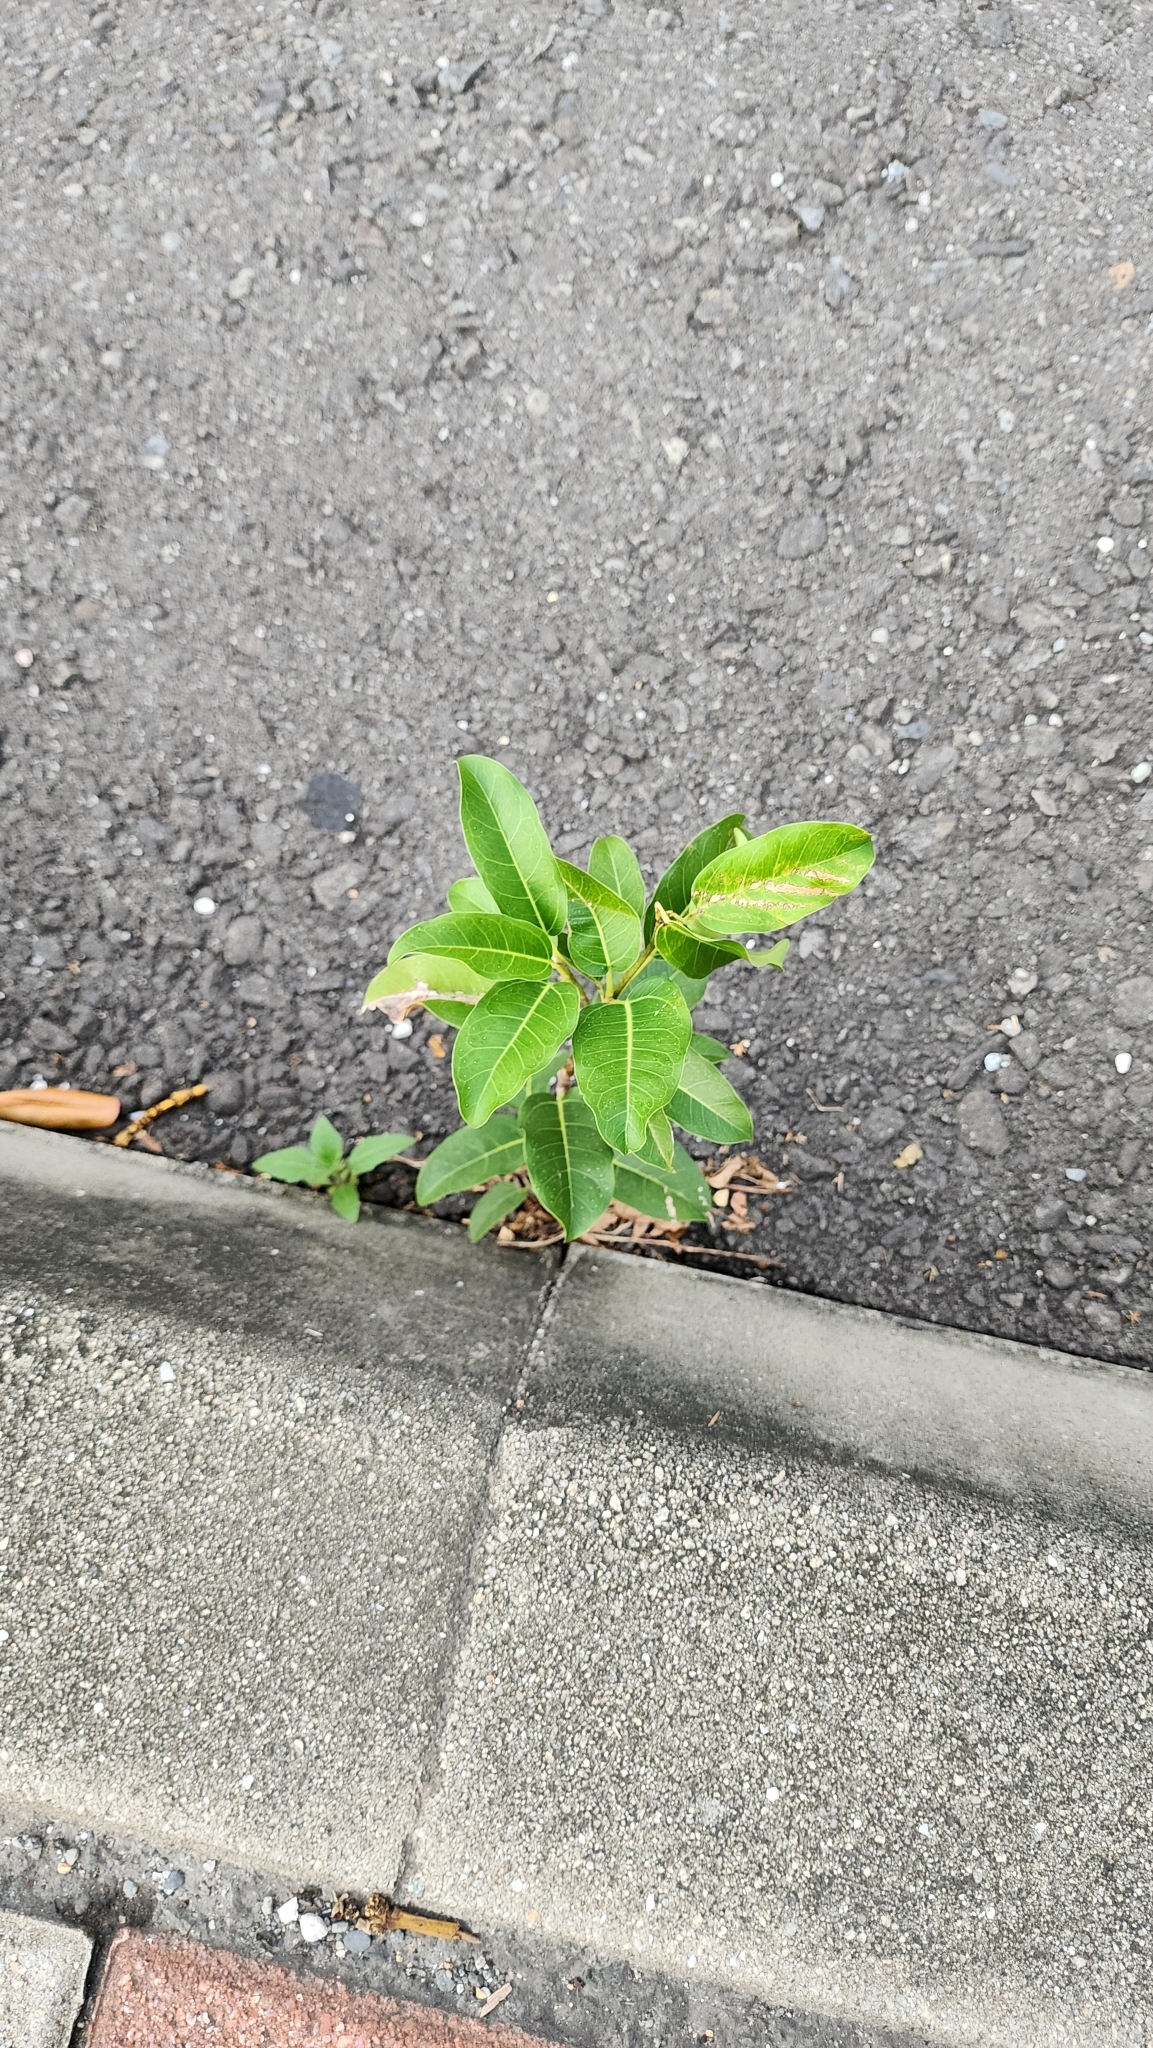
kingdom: Plantae
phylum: Tracheophyta
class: Magnoliopsida
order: Rosales
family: Moraceae
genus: Ficus
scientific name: Ficus subpisocarpa
